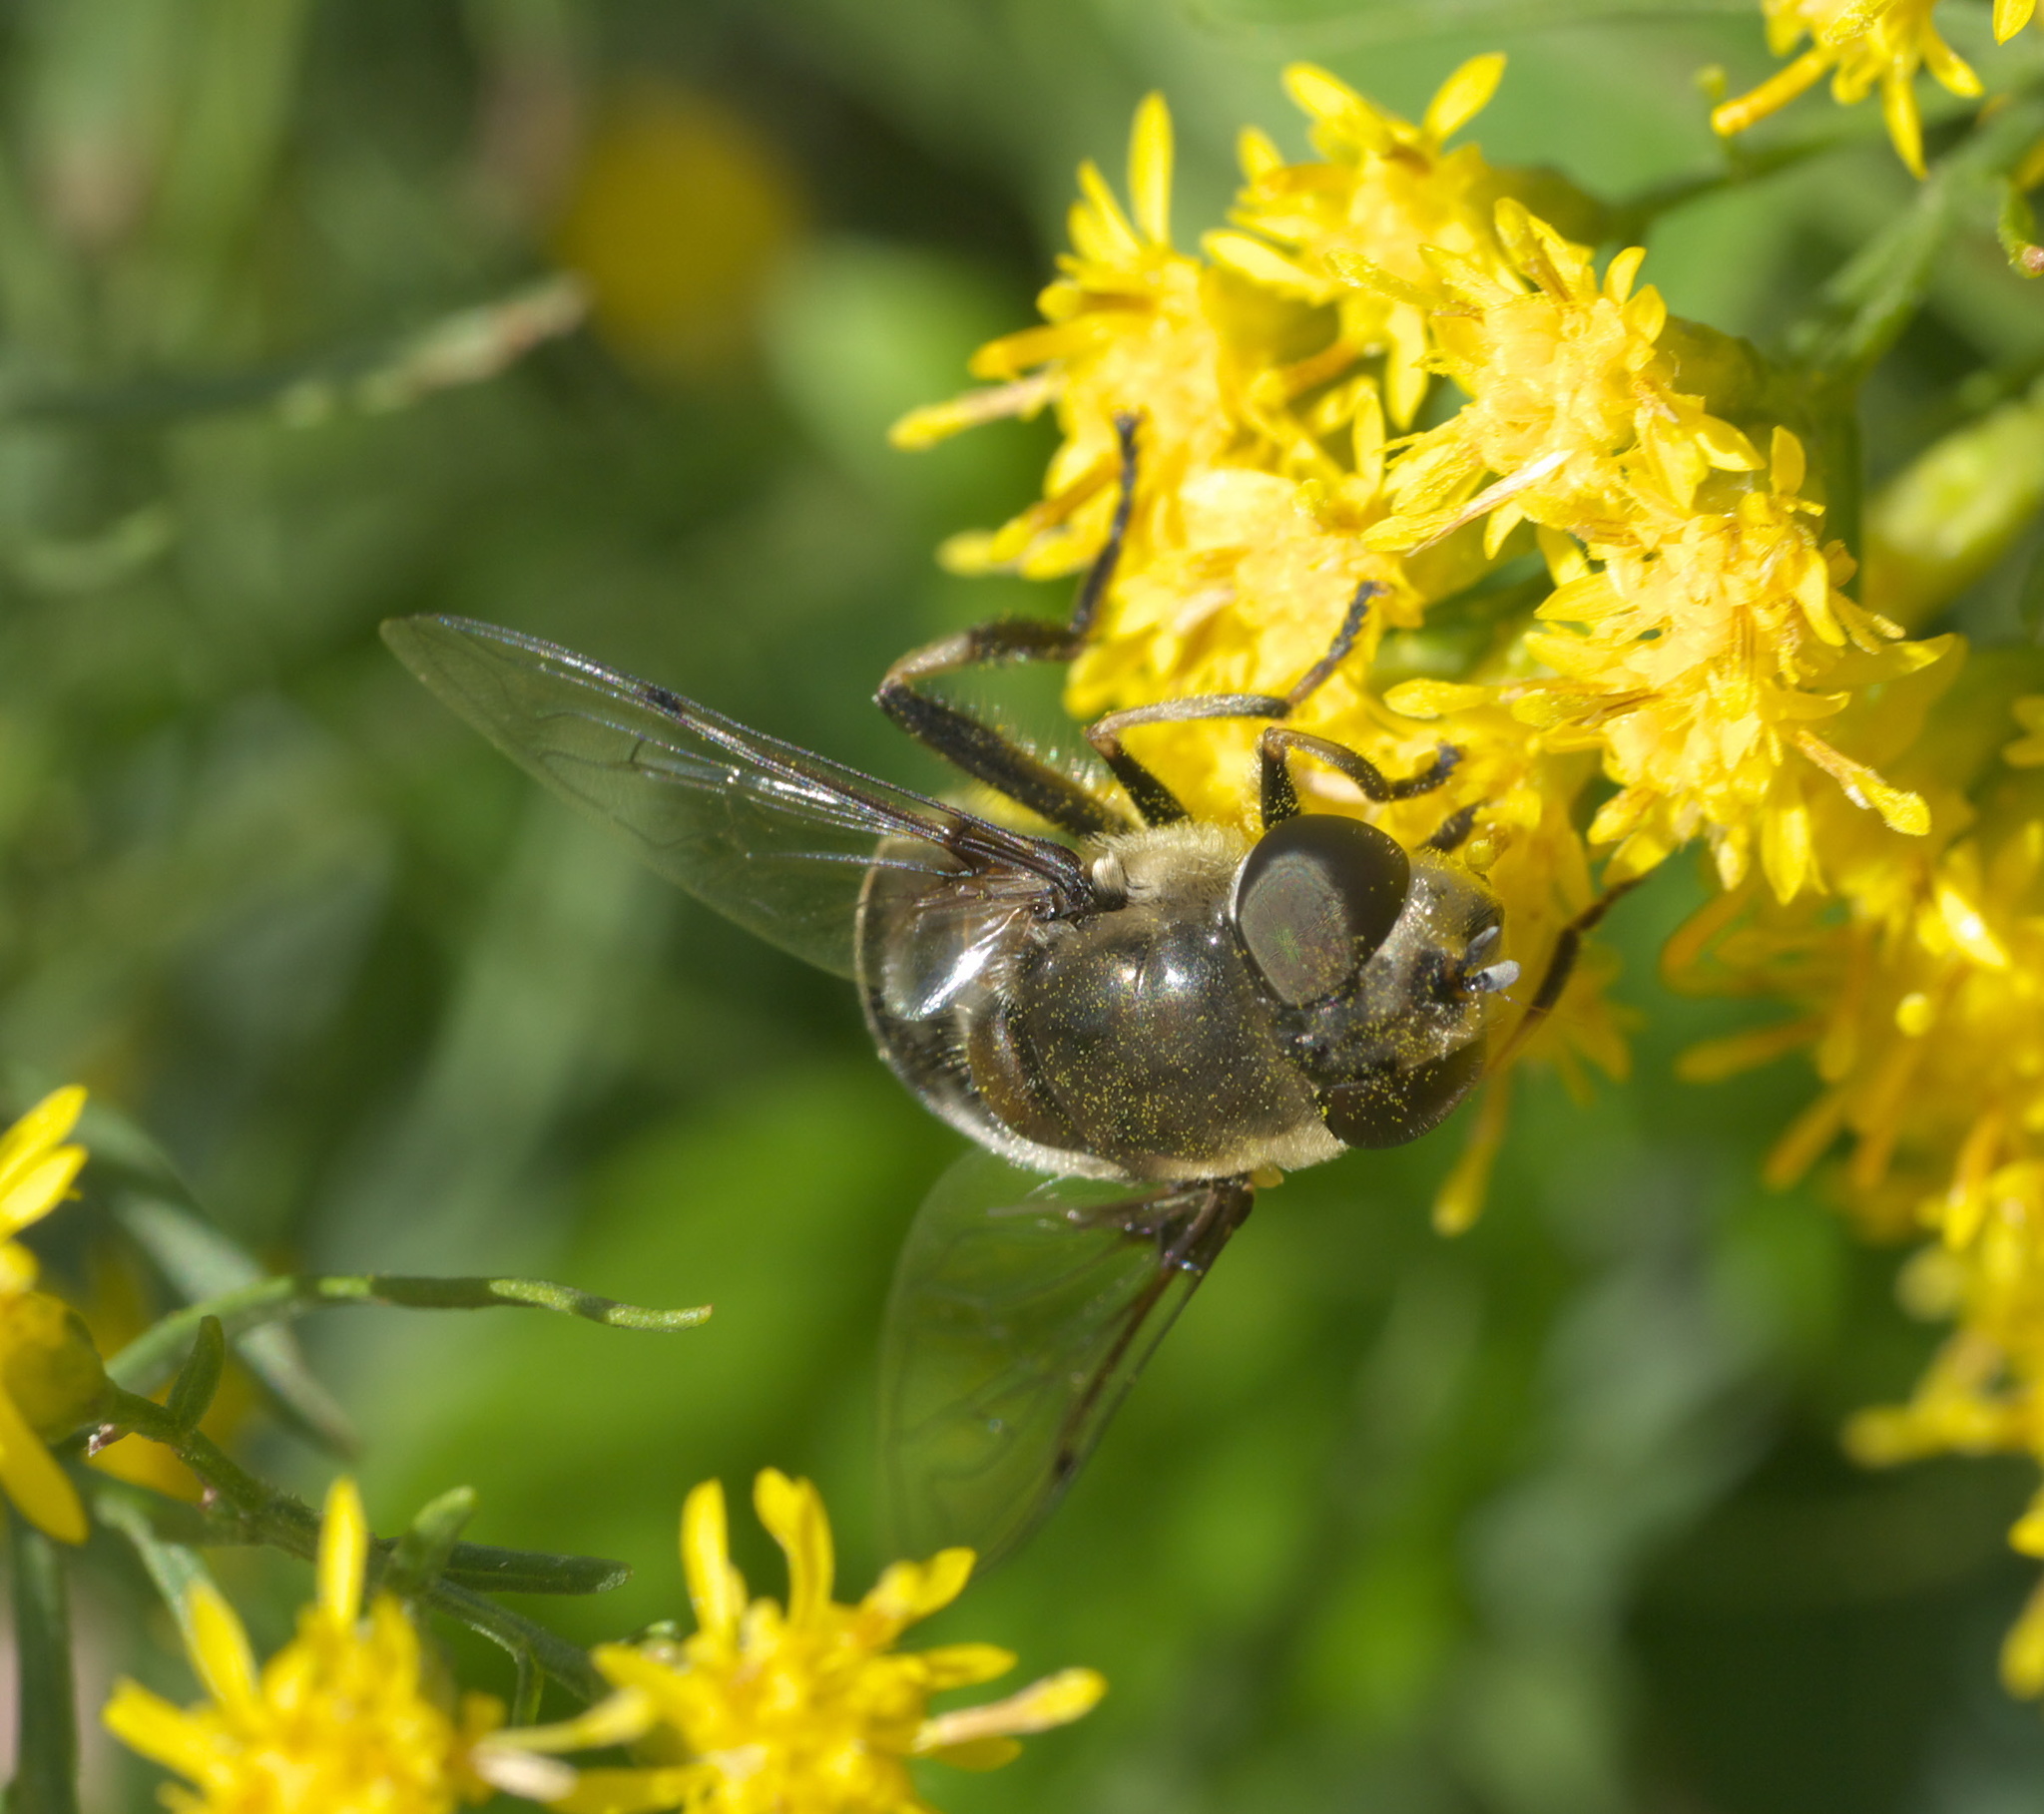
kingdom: Animalia
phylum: Arthropoda
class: Insecta
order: Diptera
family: Syrphidae
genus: Eristalis
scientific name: Eristalis dimidiata
